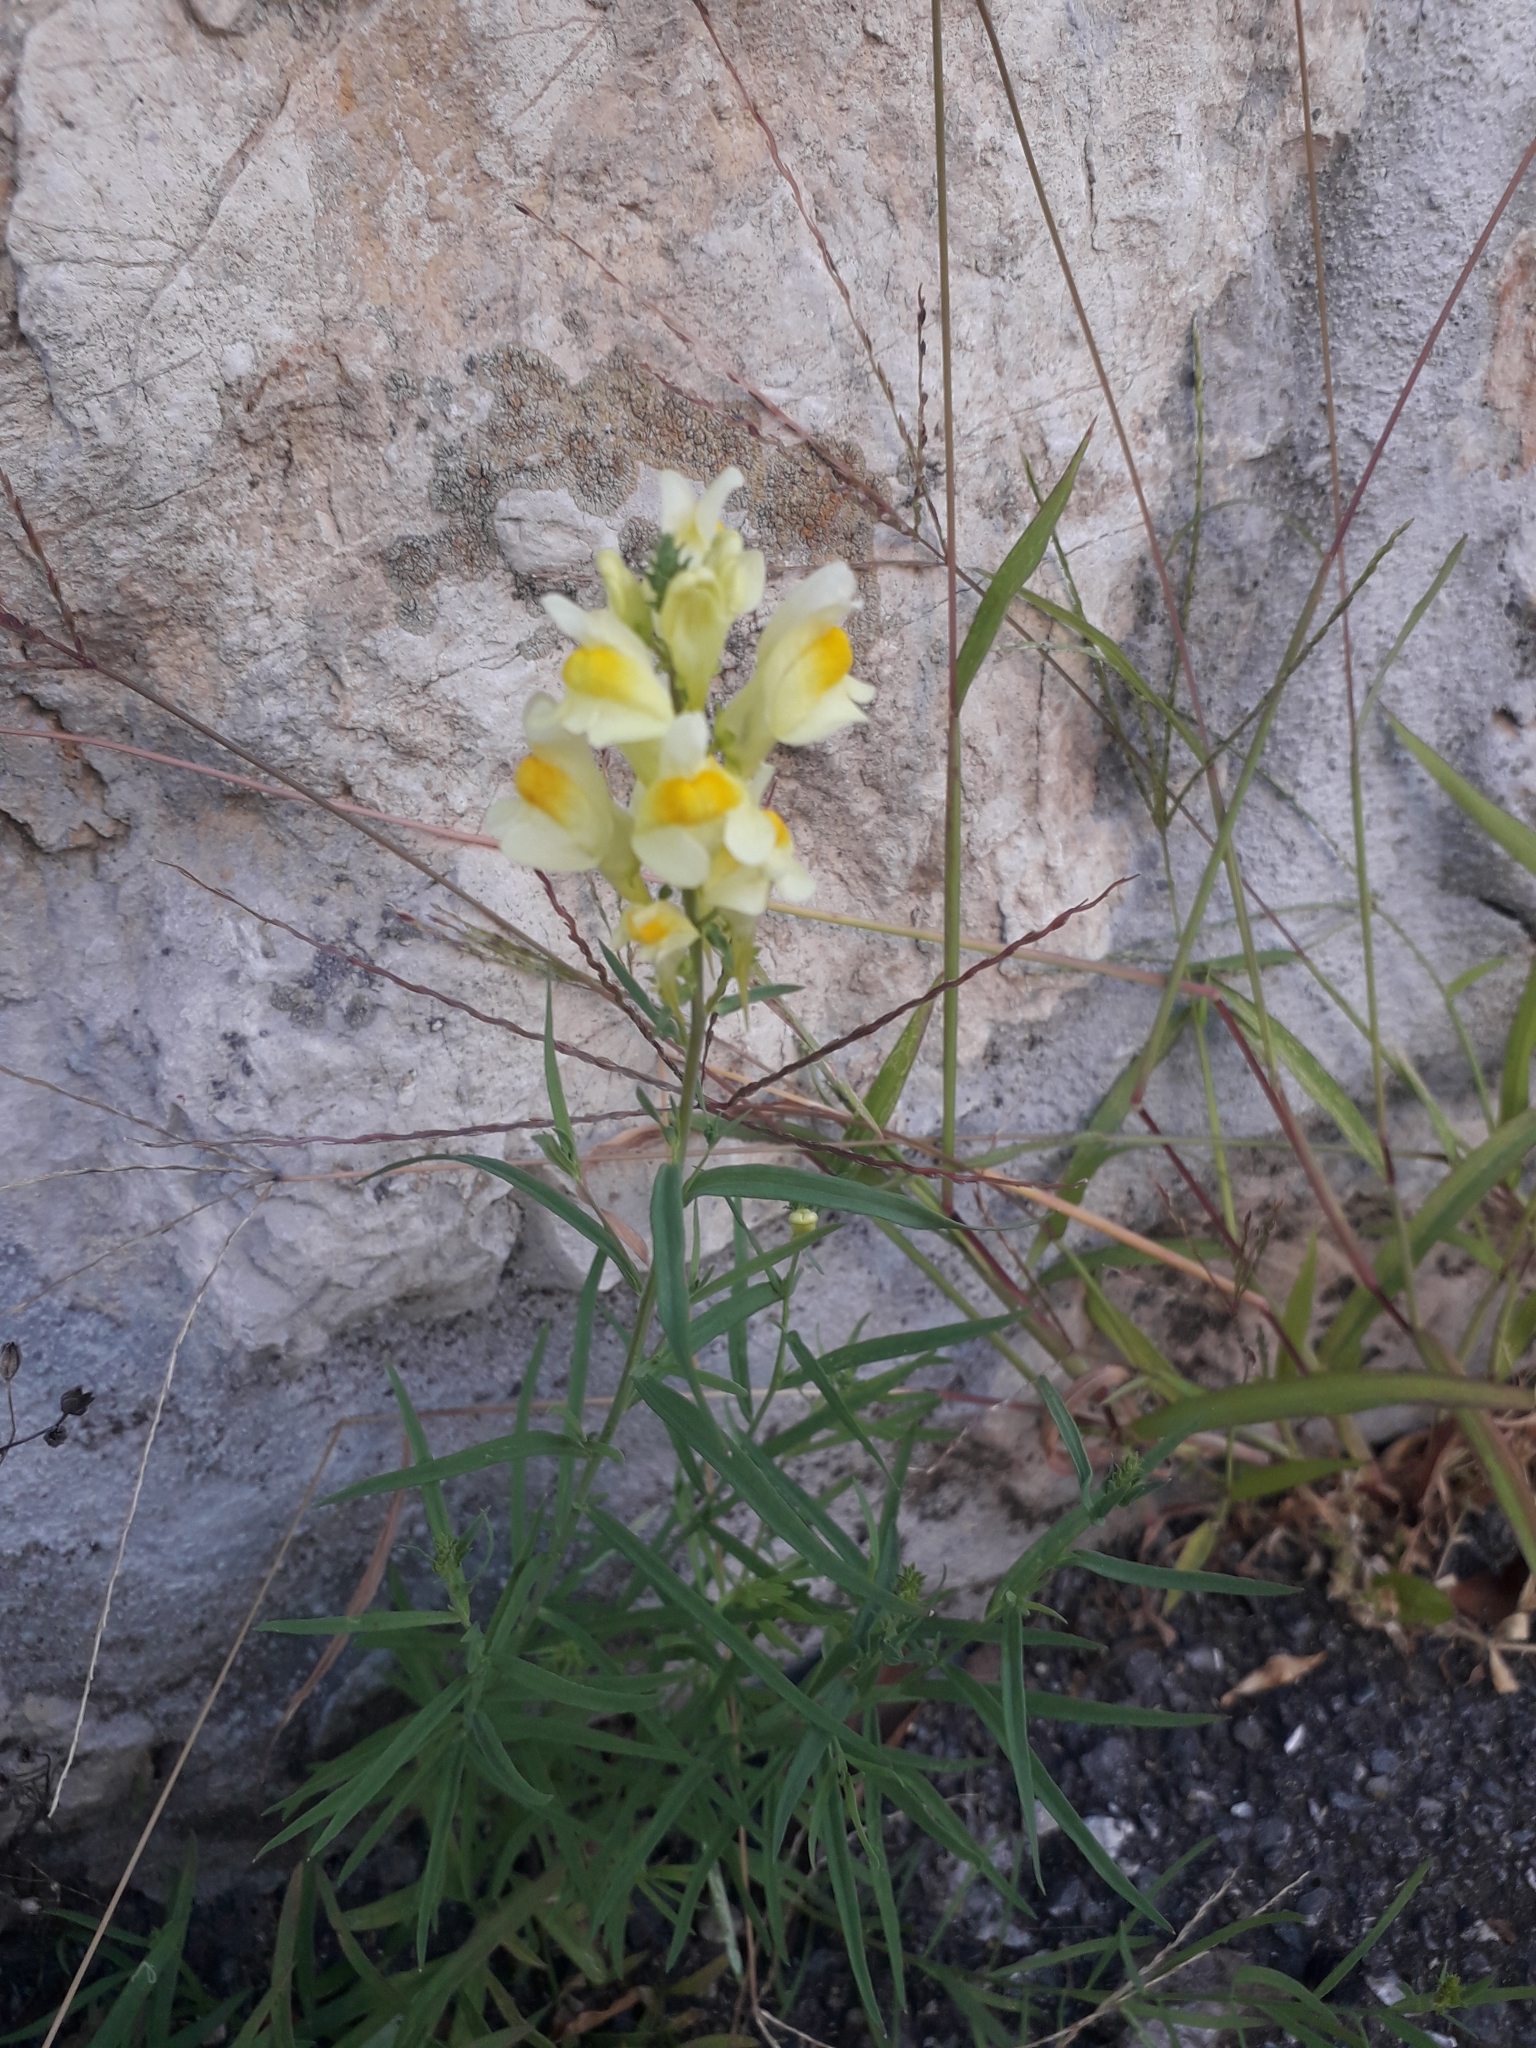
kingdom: Plantae
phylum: Tracheophyta
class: Magnoliopsida
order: Lamiales
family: Plantaginaceae
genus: Linaria
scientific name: Linaria vulgaris
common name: Butter and eggs
